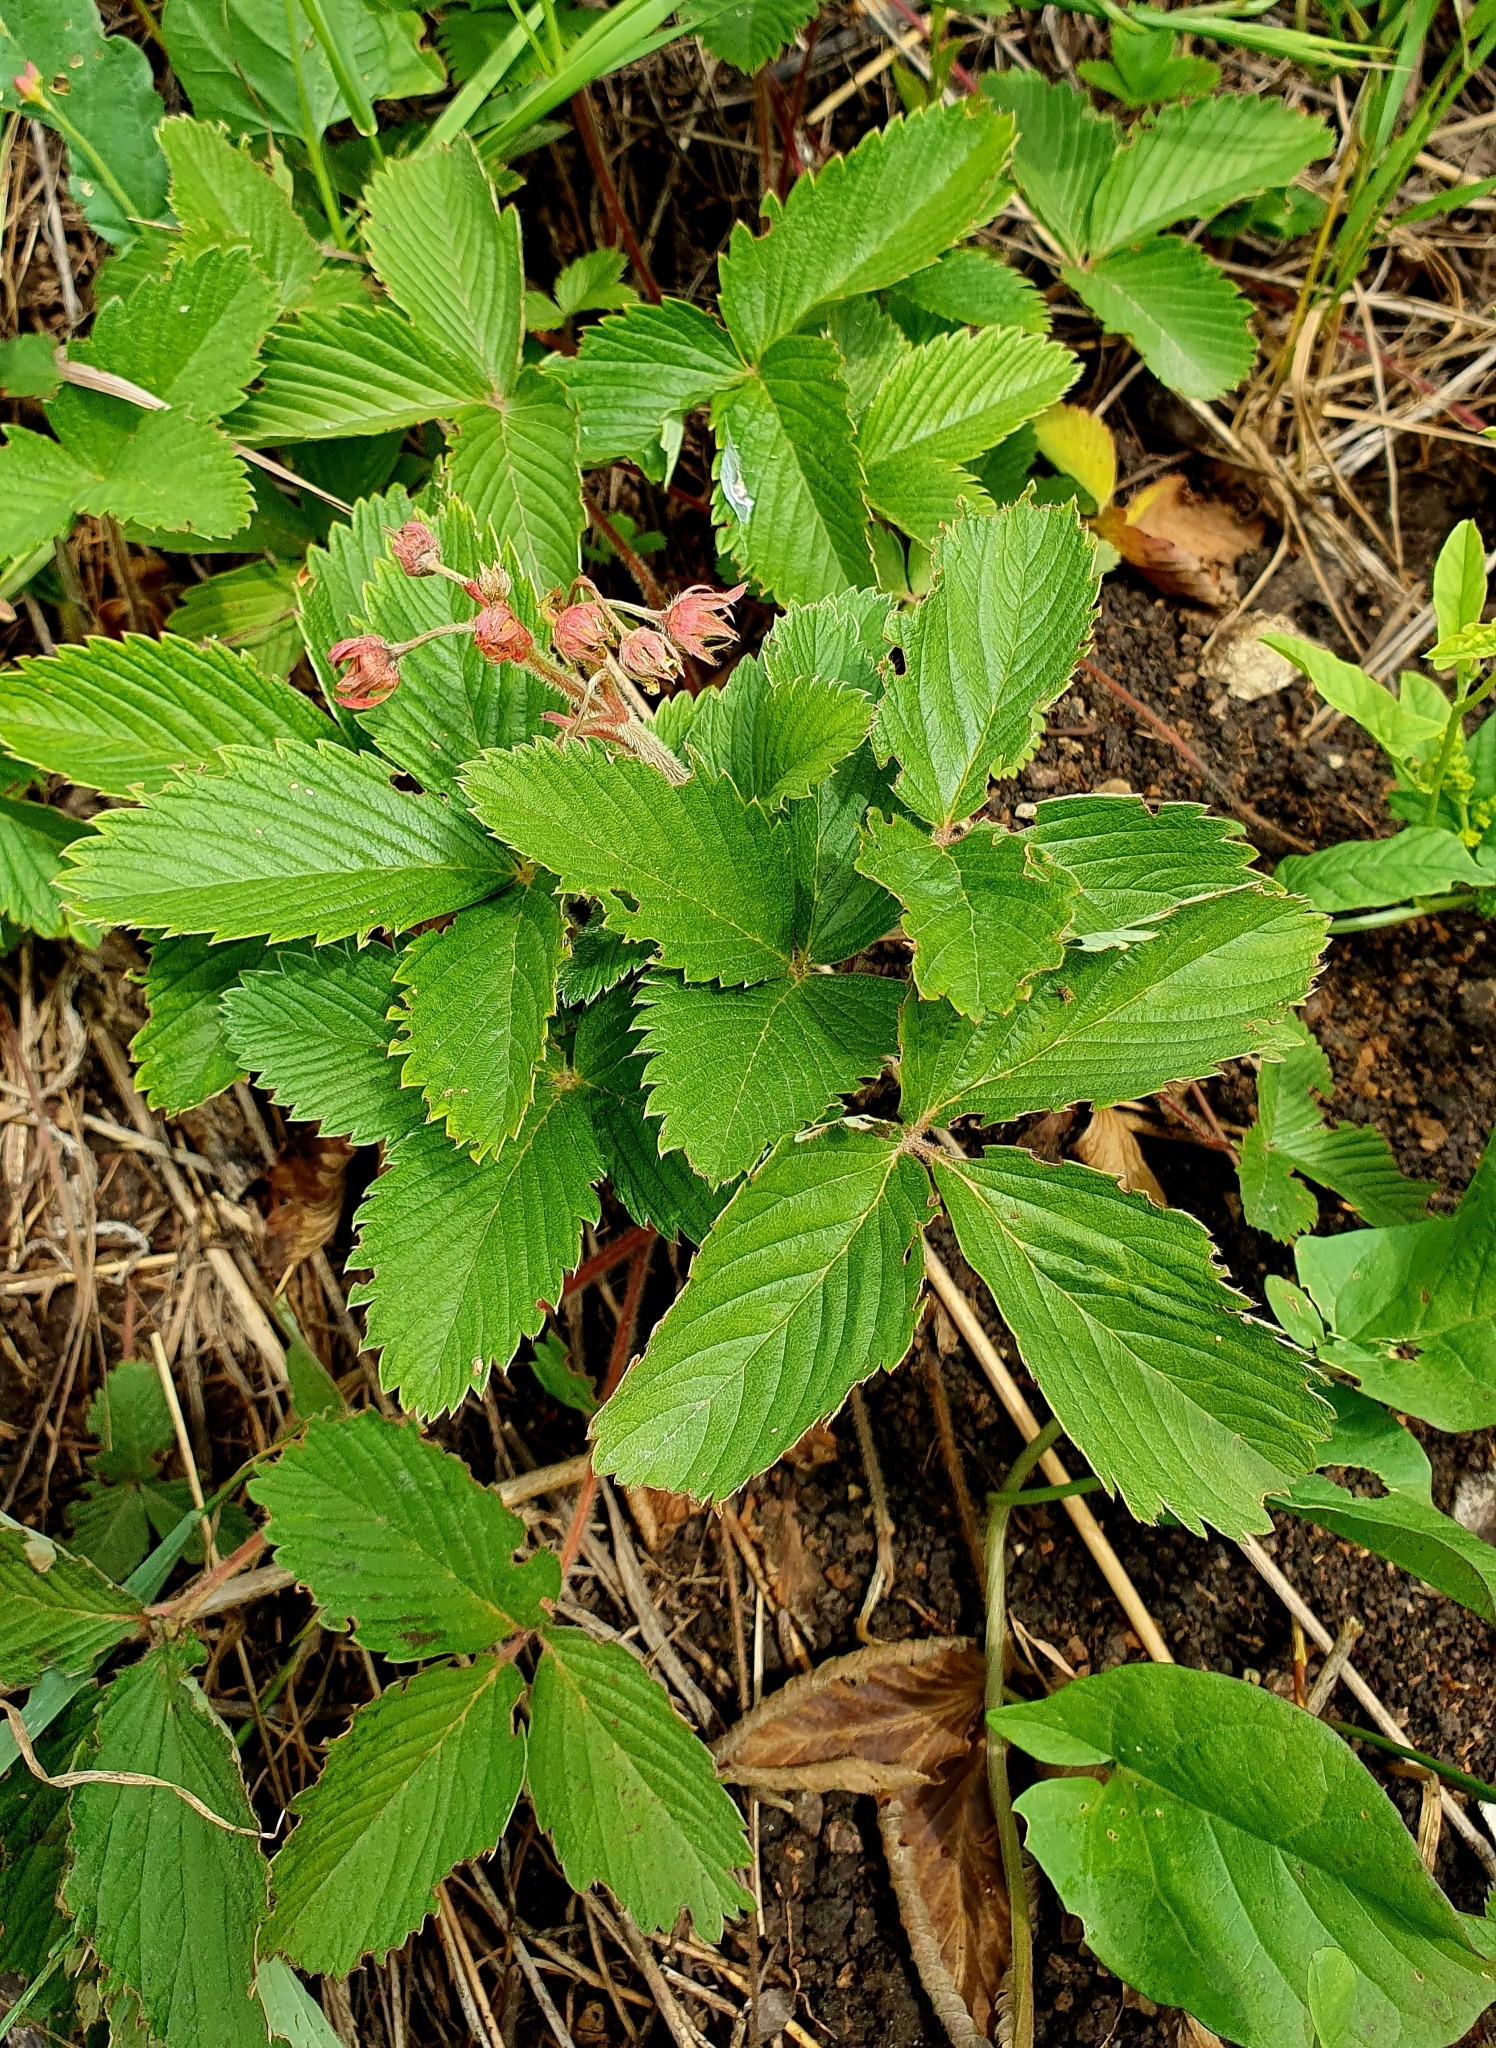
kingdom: Plantae
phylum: Tracheophyta
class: Magnoliopsida
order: Rosales
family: Rosaceae
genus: Fragaria
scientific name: Fragaria viridis
